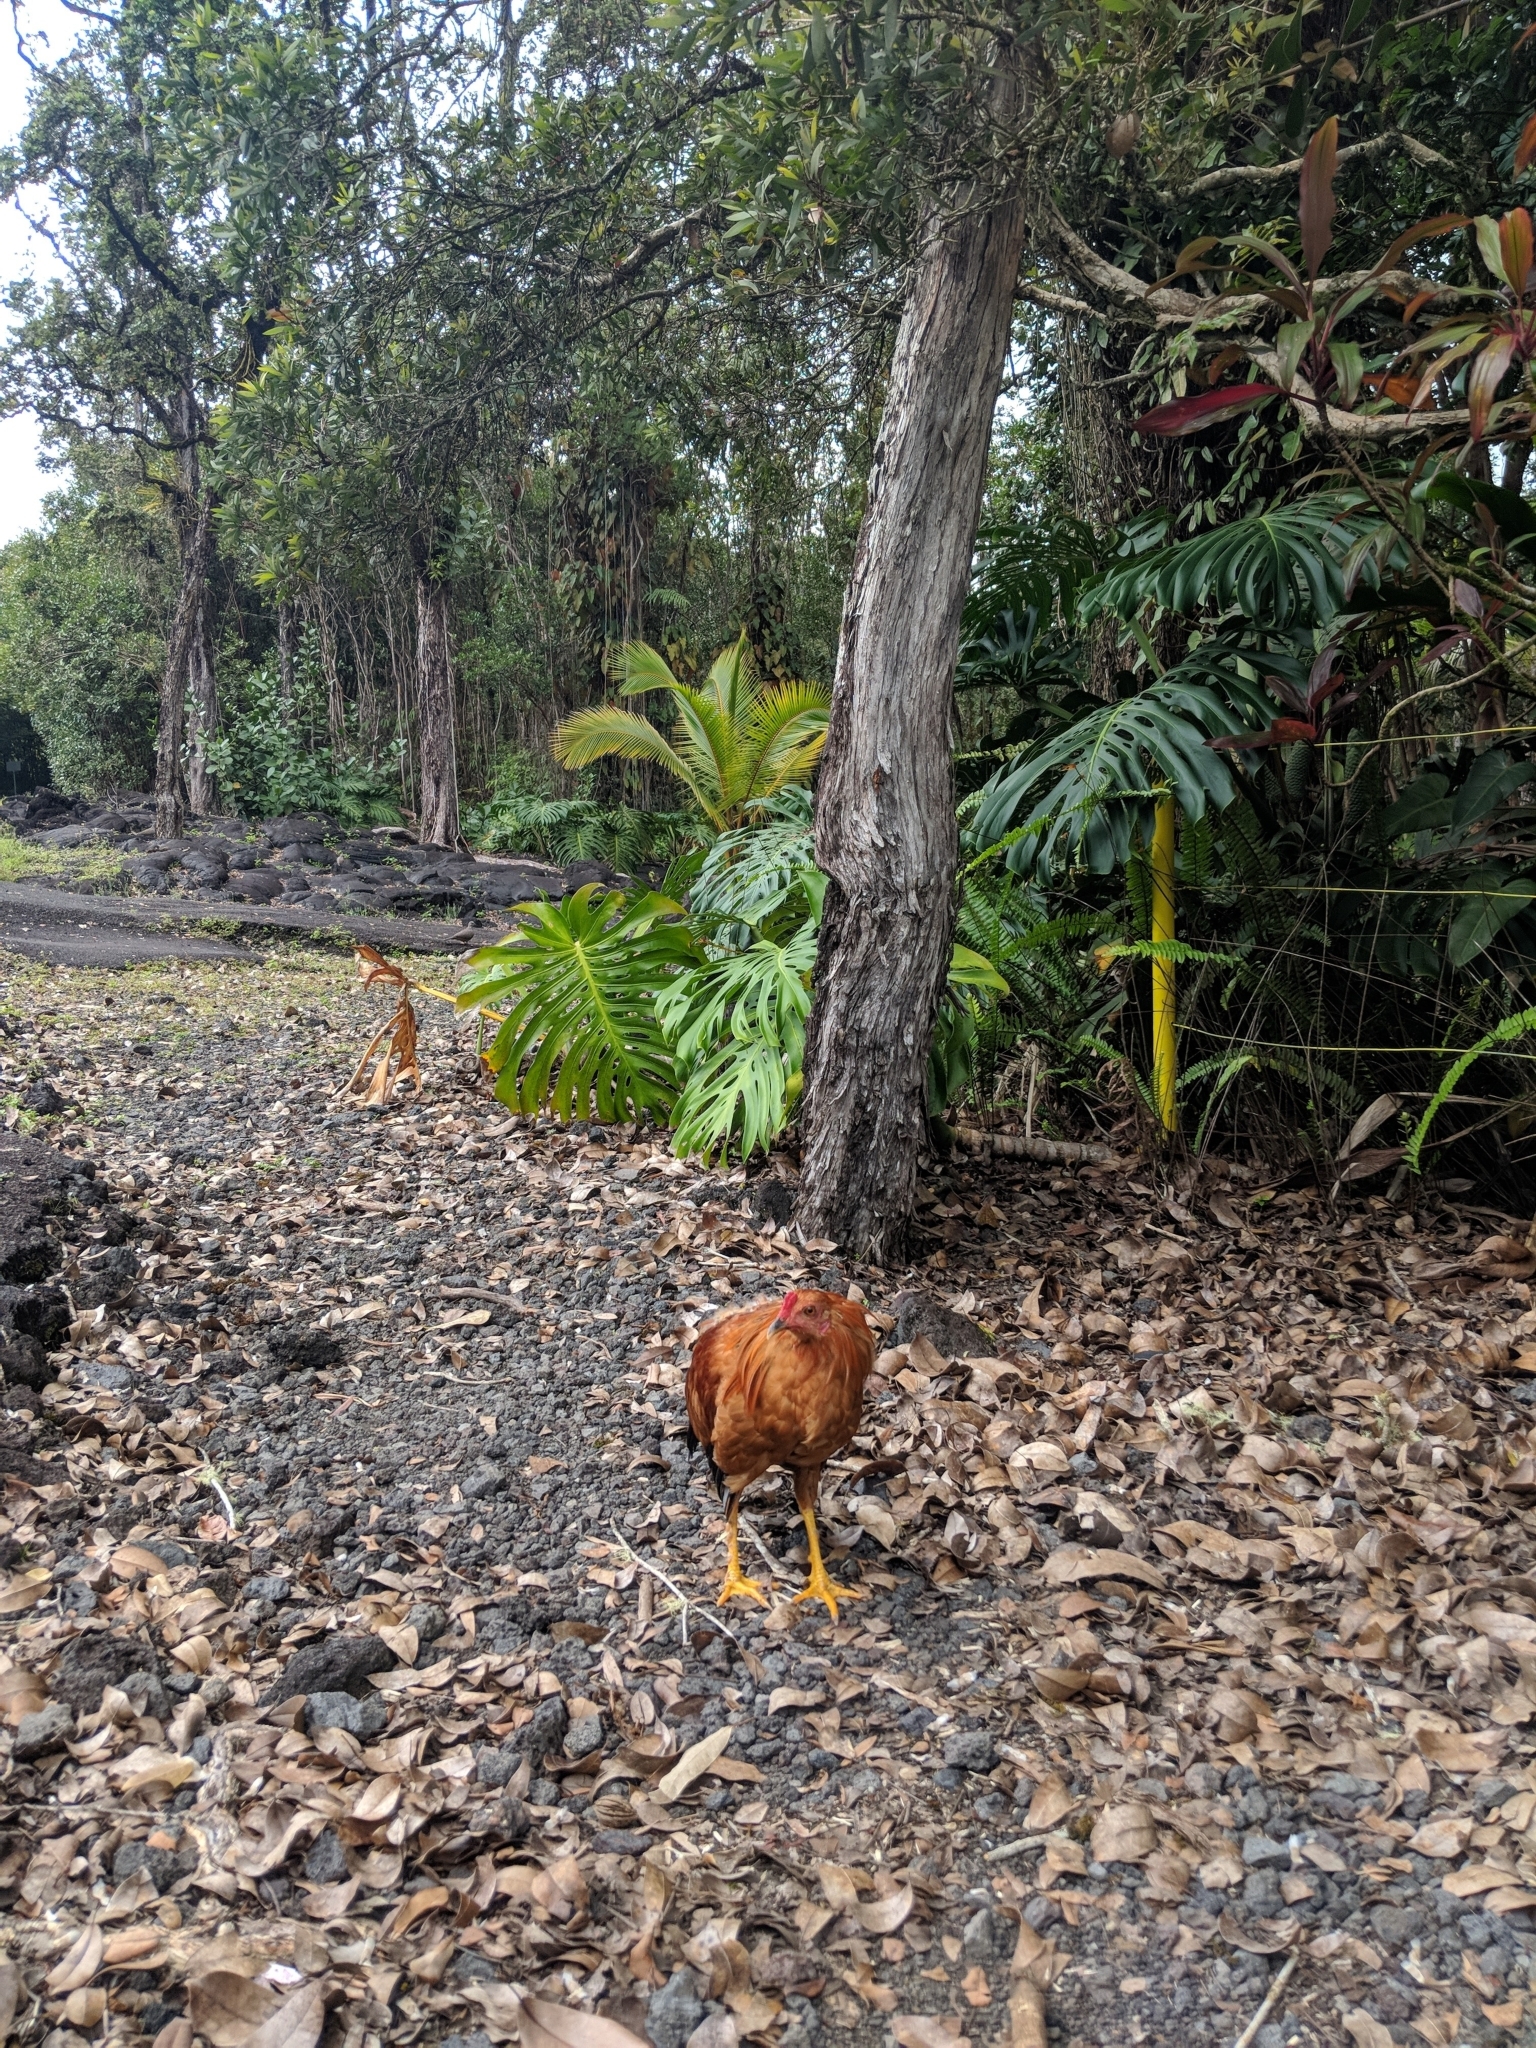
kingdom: Animalia
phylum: Chordata
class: Aves
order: Galliformes
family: Phasianidae
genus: Gallus
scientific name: Gallus gallus
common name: Red junglefowl
